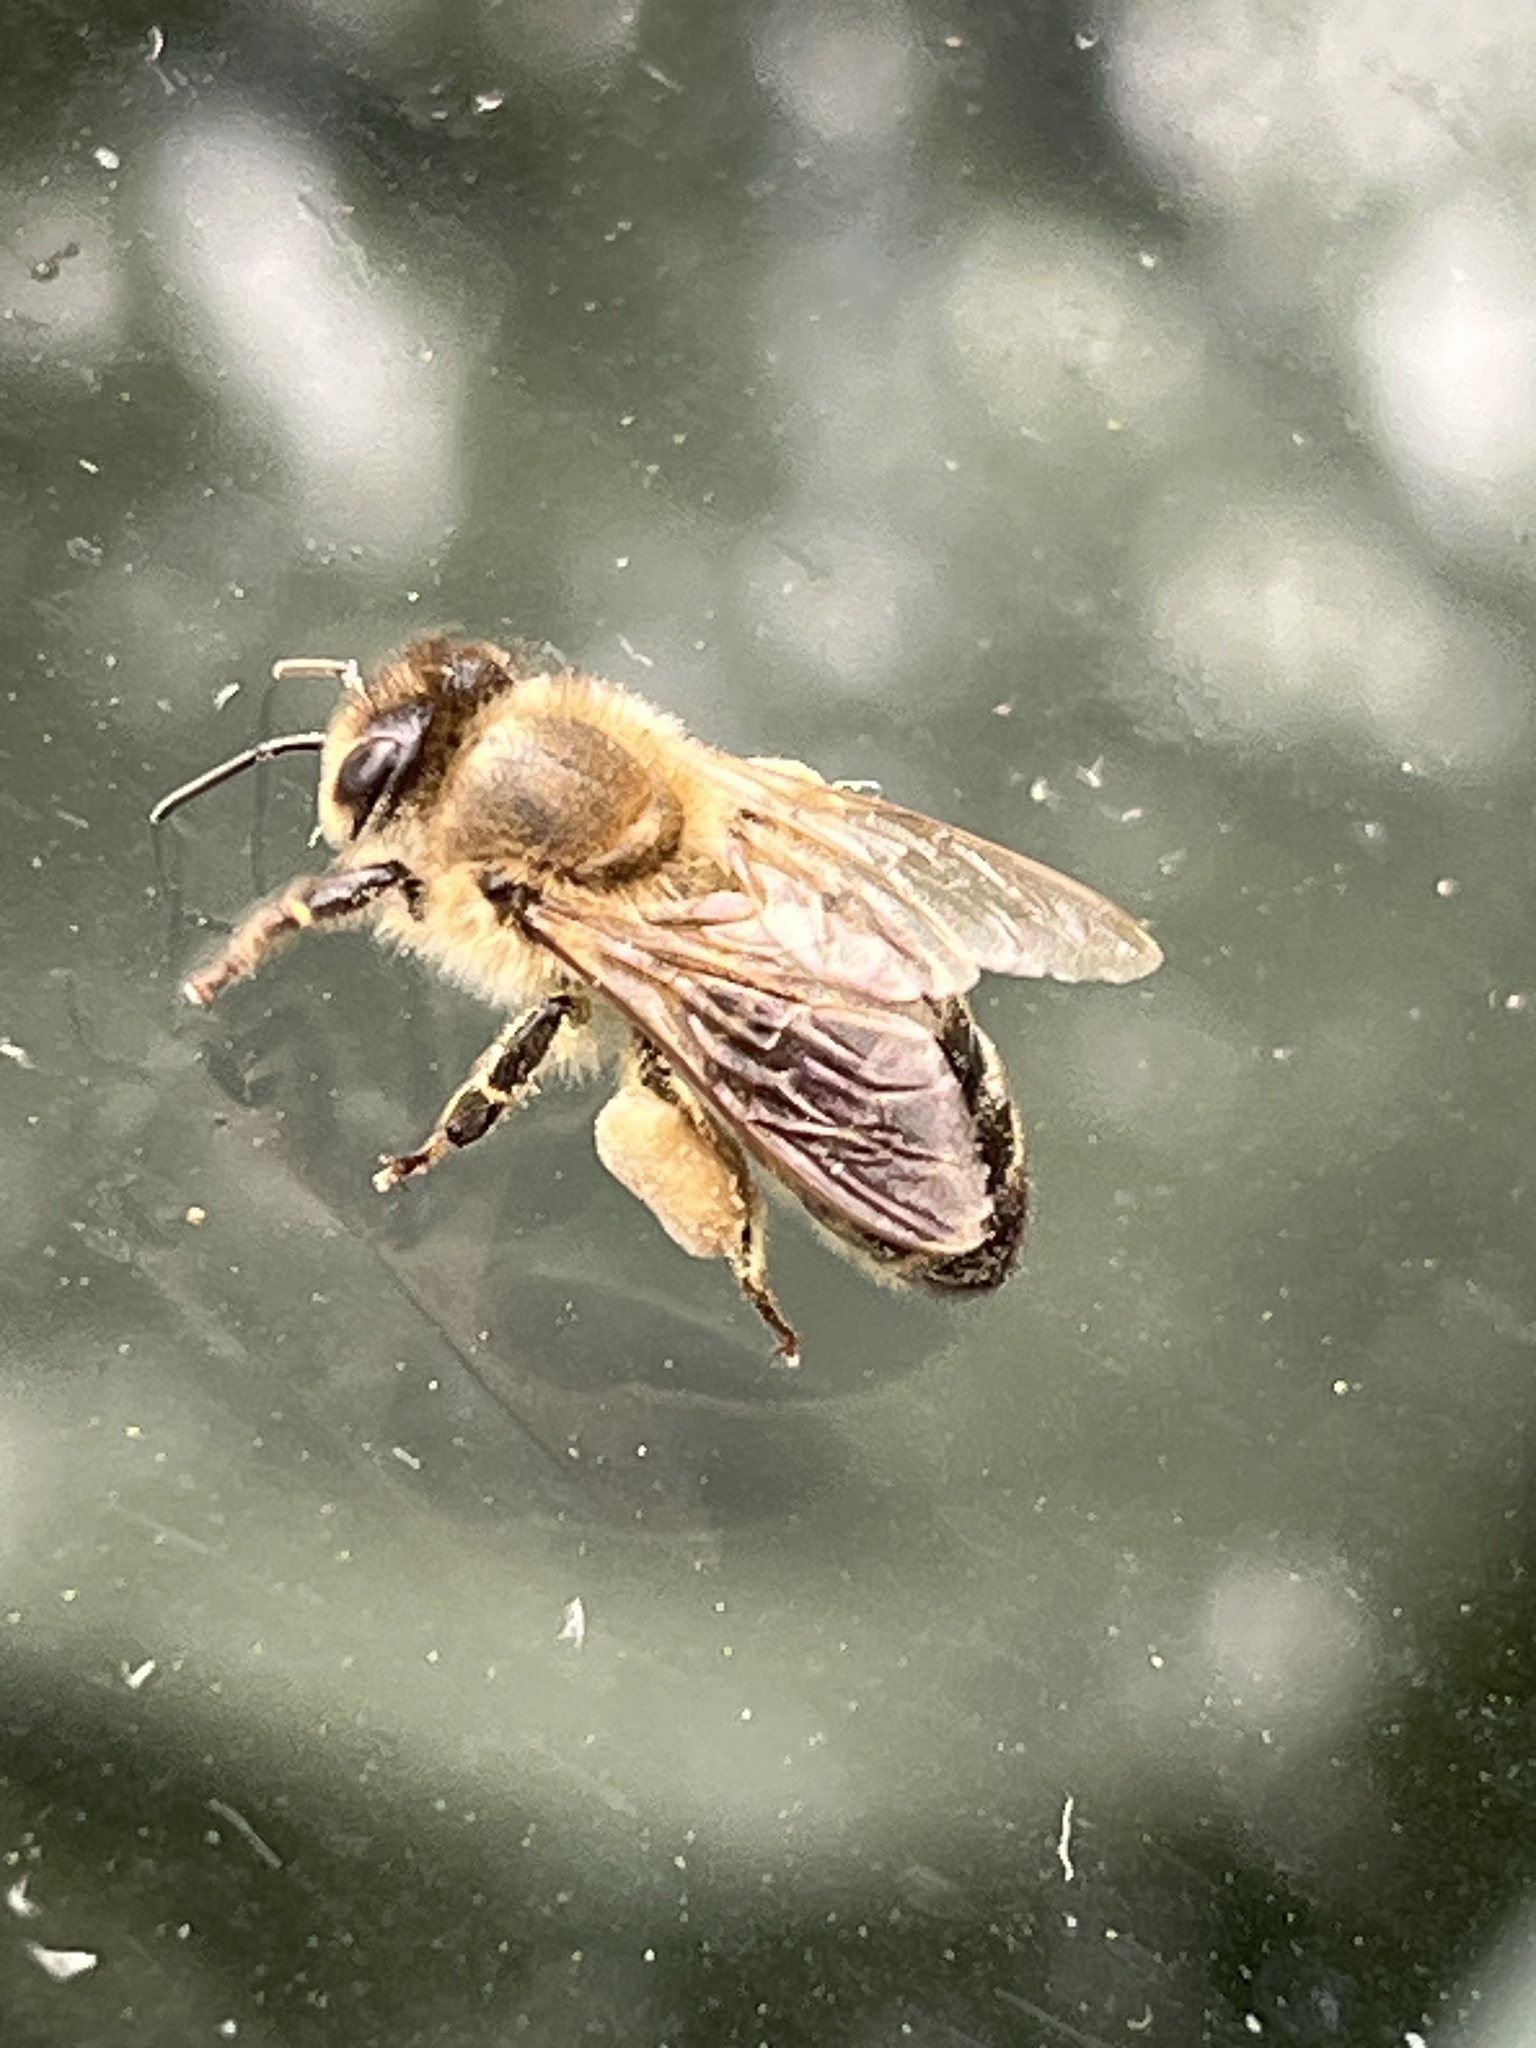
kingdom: Animalia
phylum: Arthropoda
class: Insecta
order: Hymenoptera
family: Apidae
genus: Apis
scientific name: Apis mellifera
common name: Honey bee
